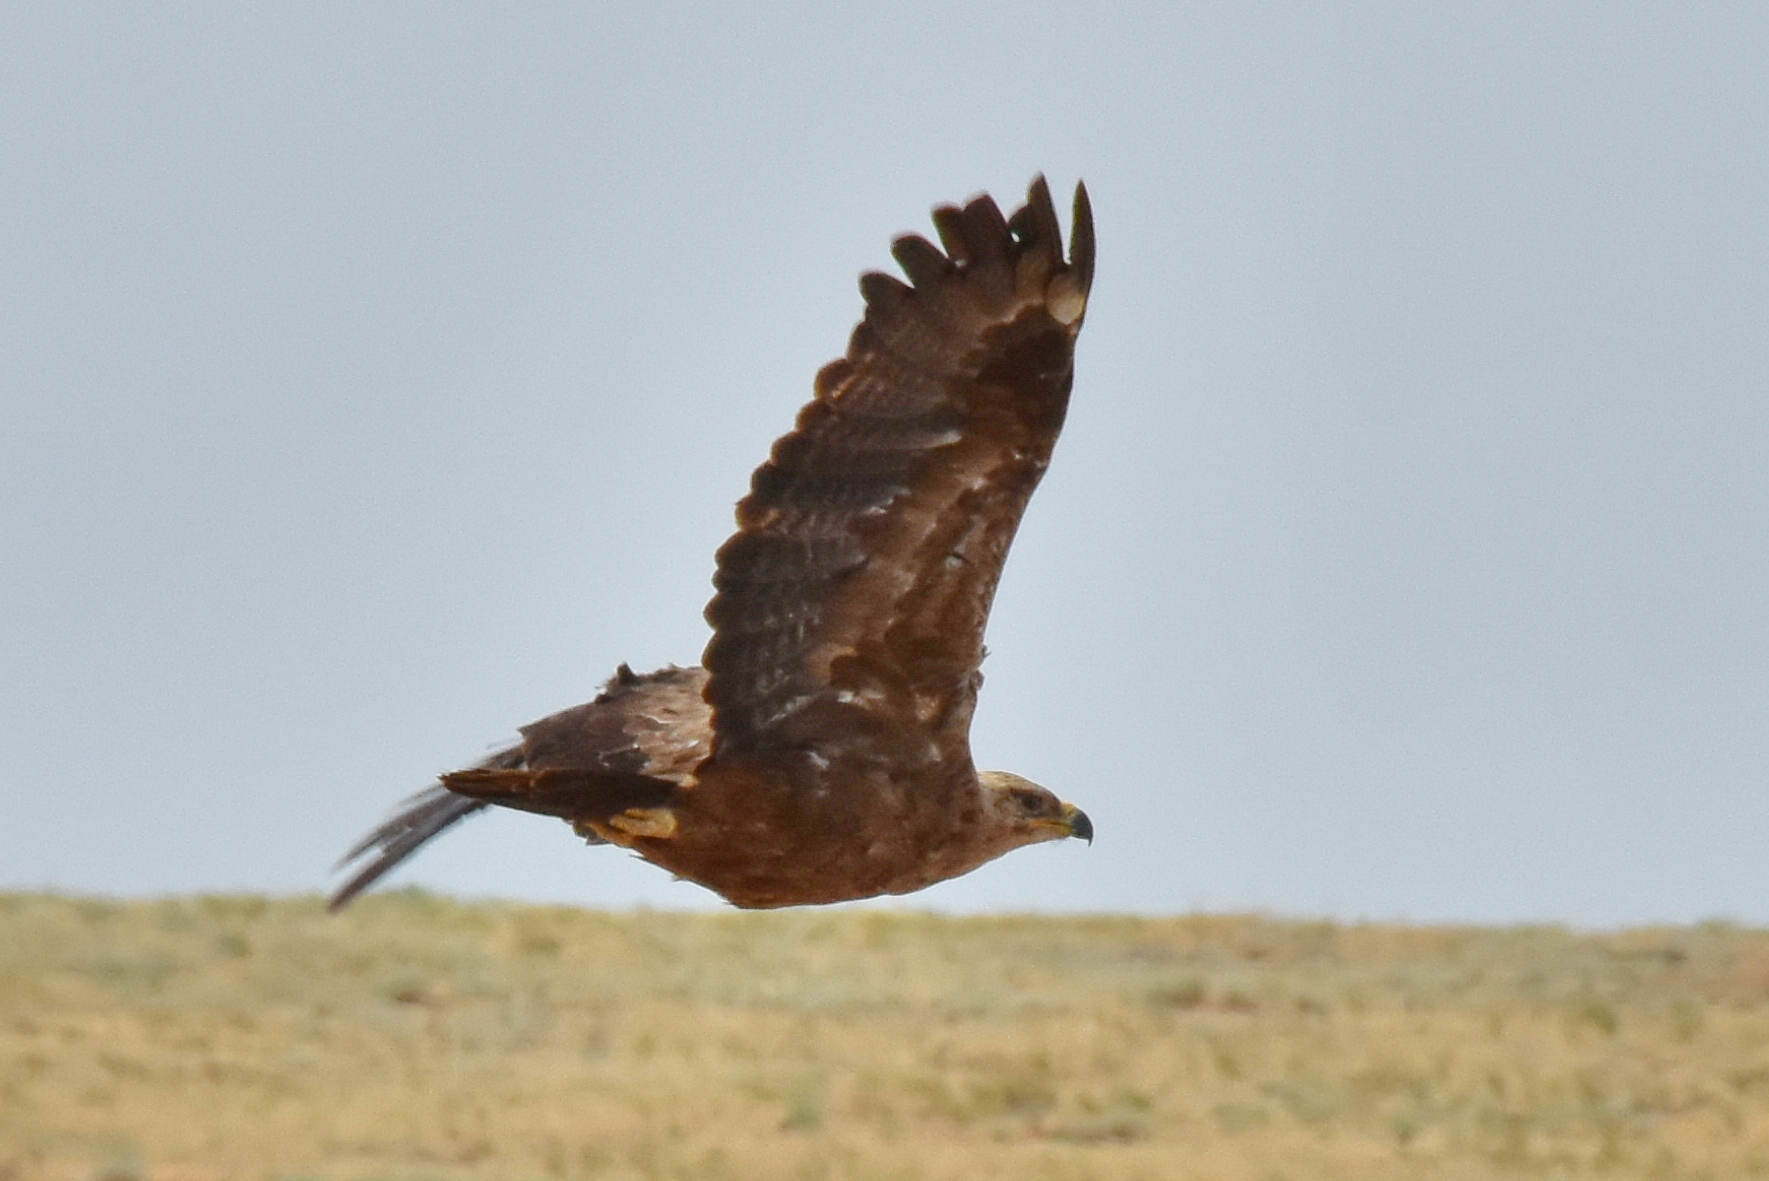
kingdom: Animalia
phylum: Chordata
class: Aves
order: Accipitriformes
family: Accipitridae
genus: Aquila
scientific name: Aquila nipalensis
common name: Steppe eagle
